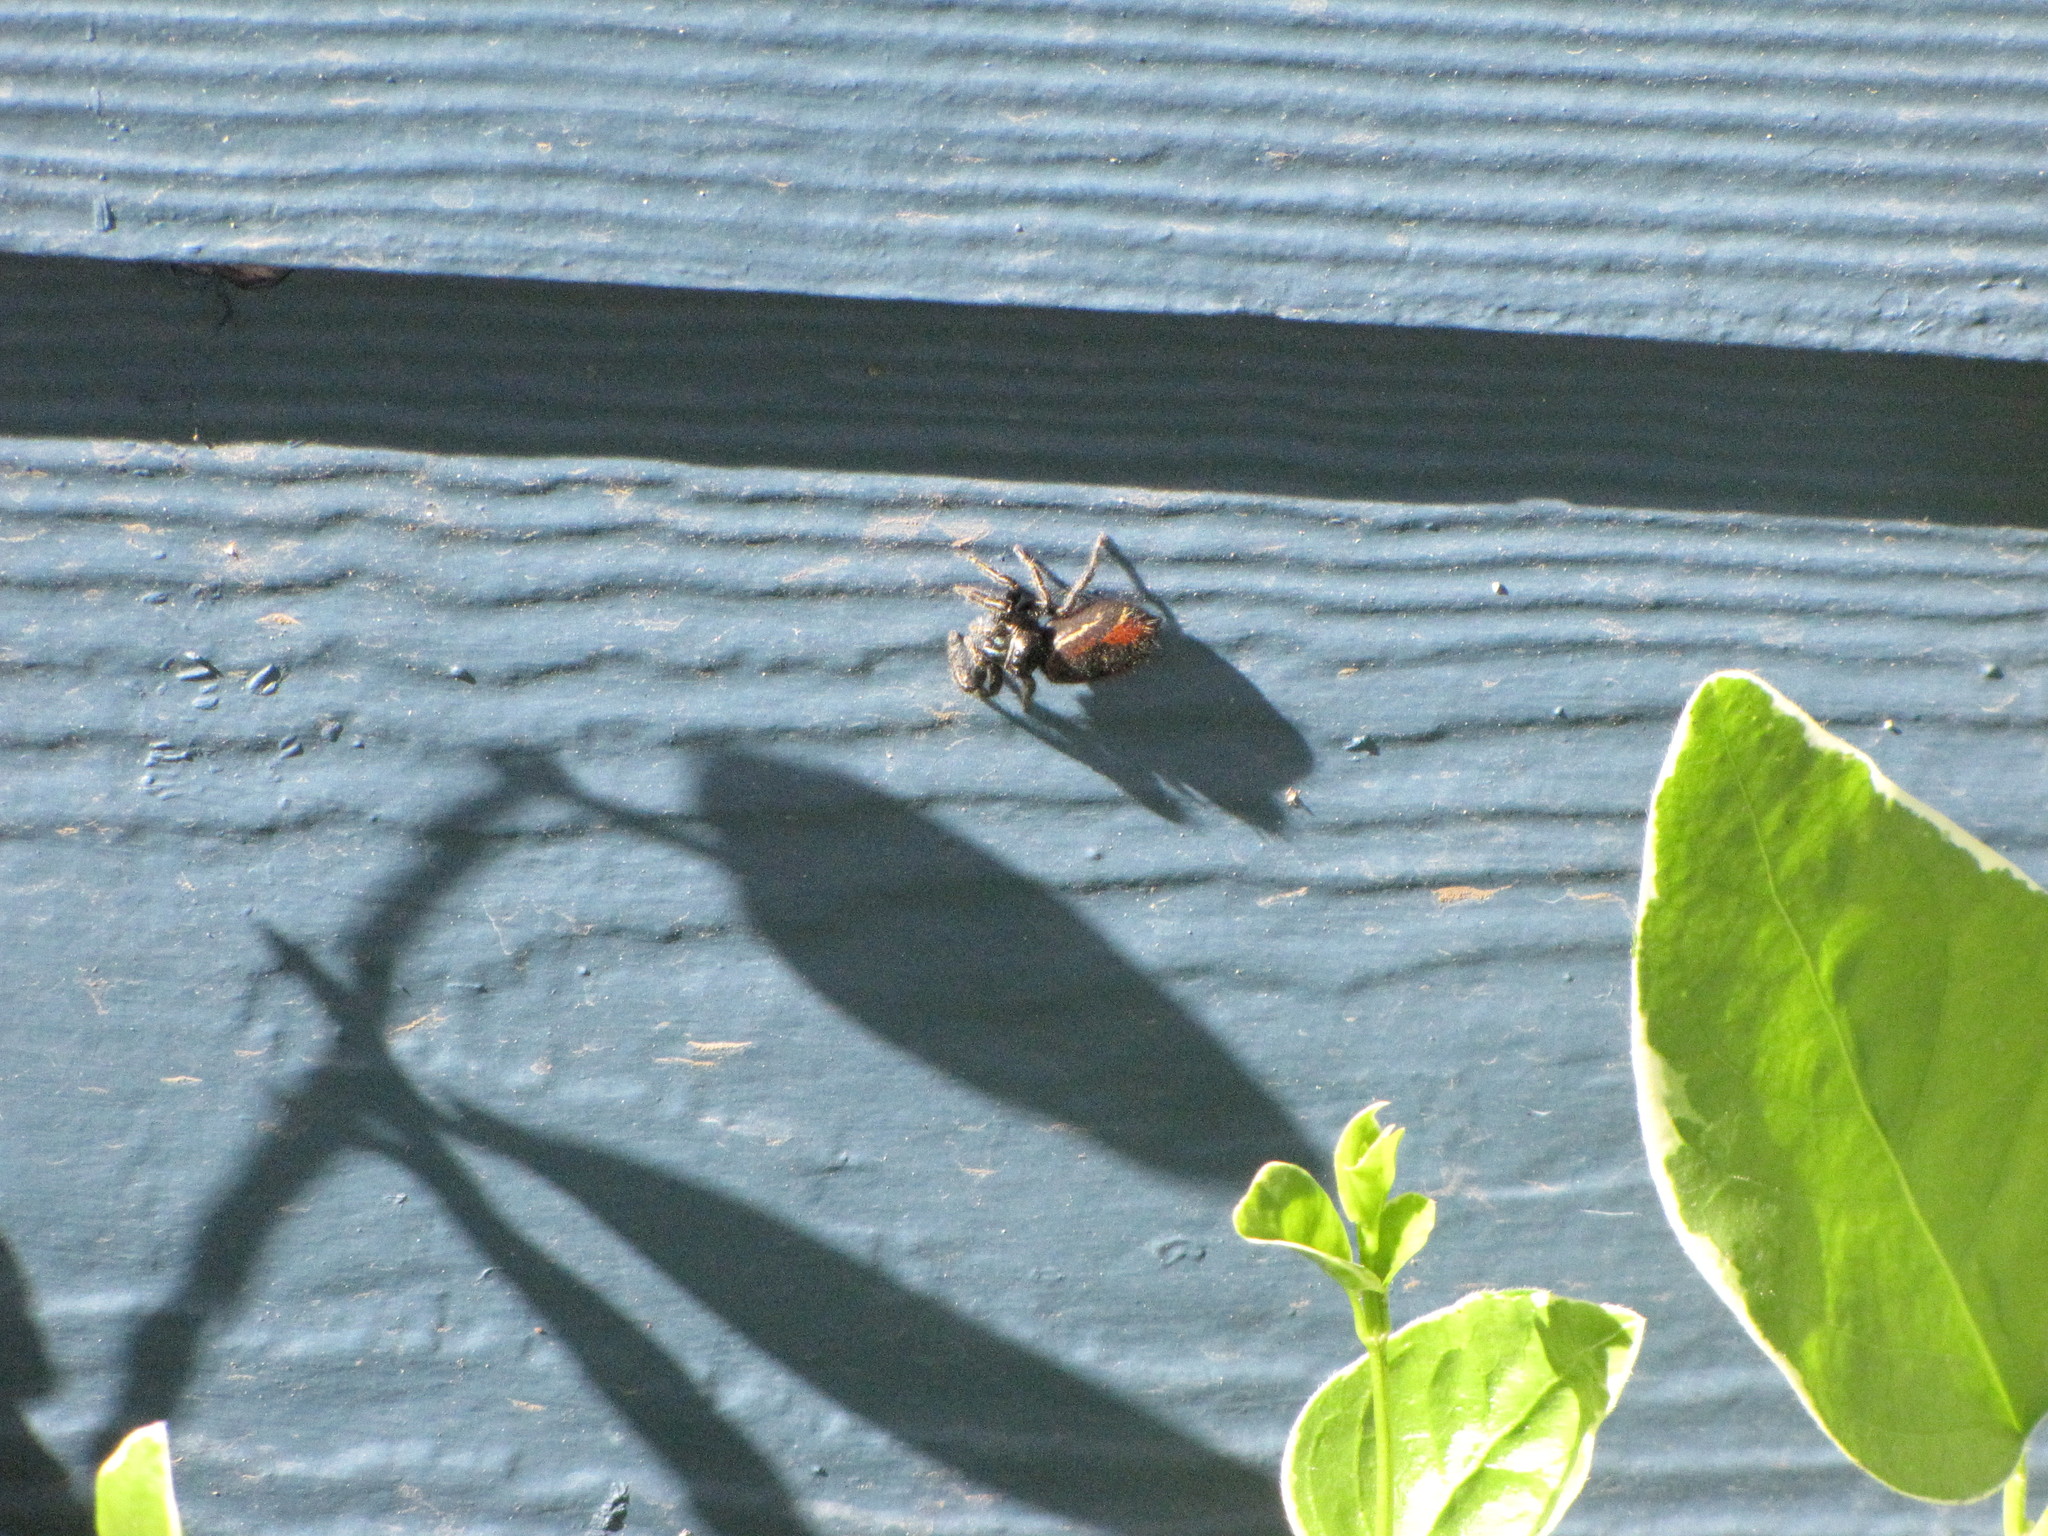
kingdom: Animalia
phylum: Arthropoda
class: Arachnida
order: Araneae
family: Salticidae
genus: Phidippus
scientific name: Phidippus johnsoni
